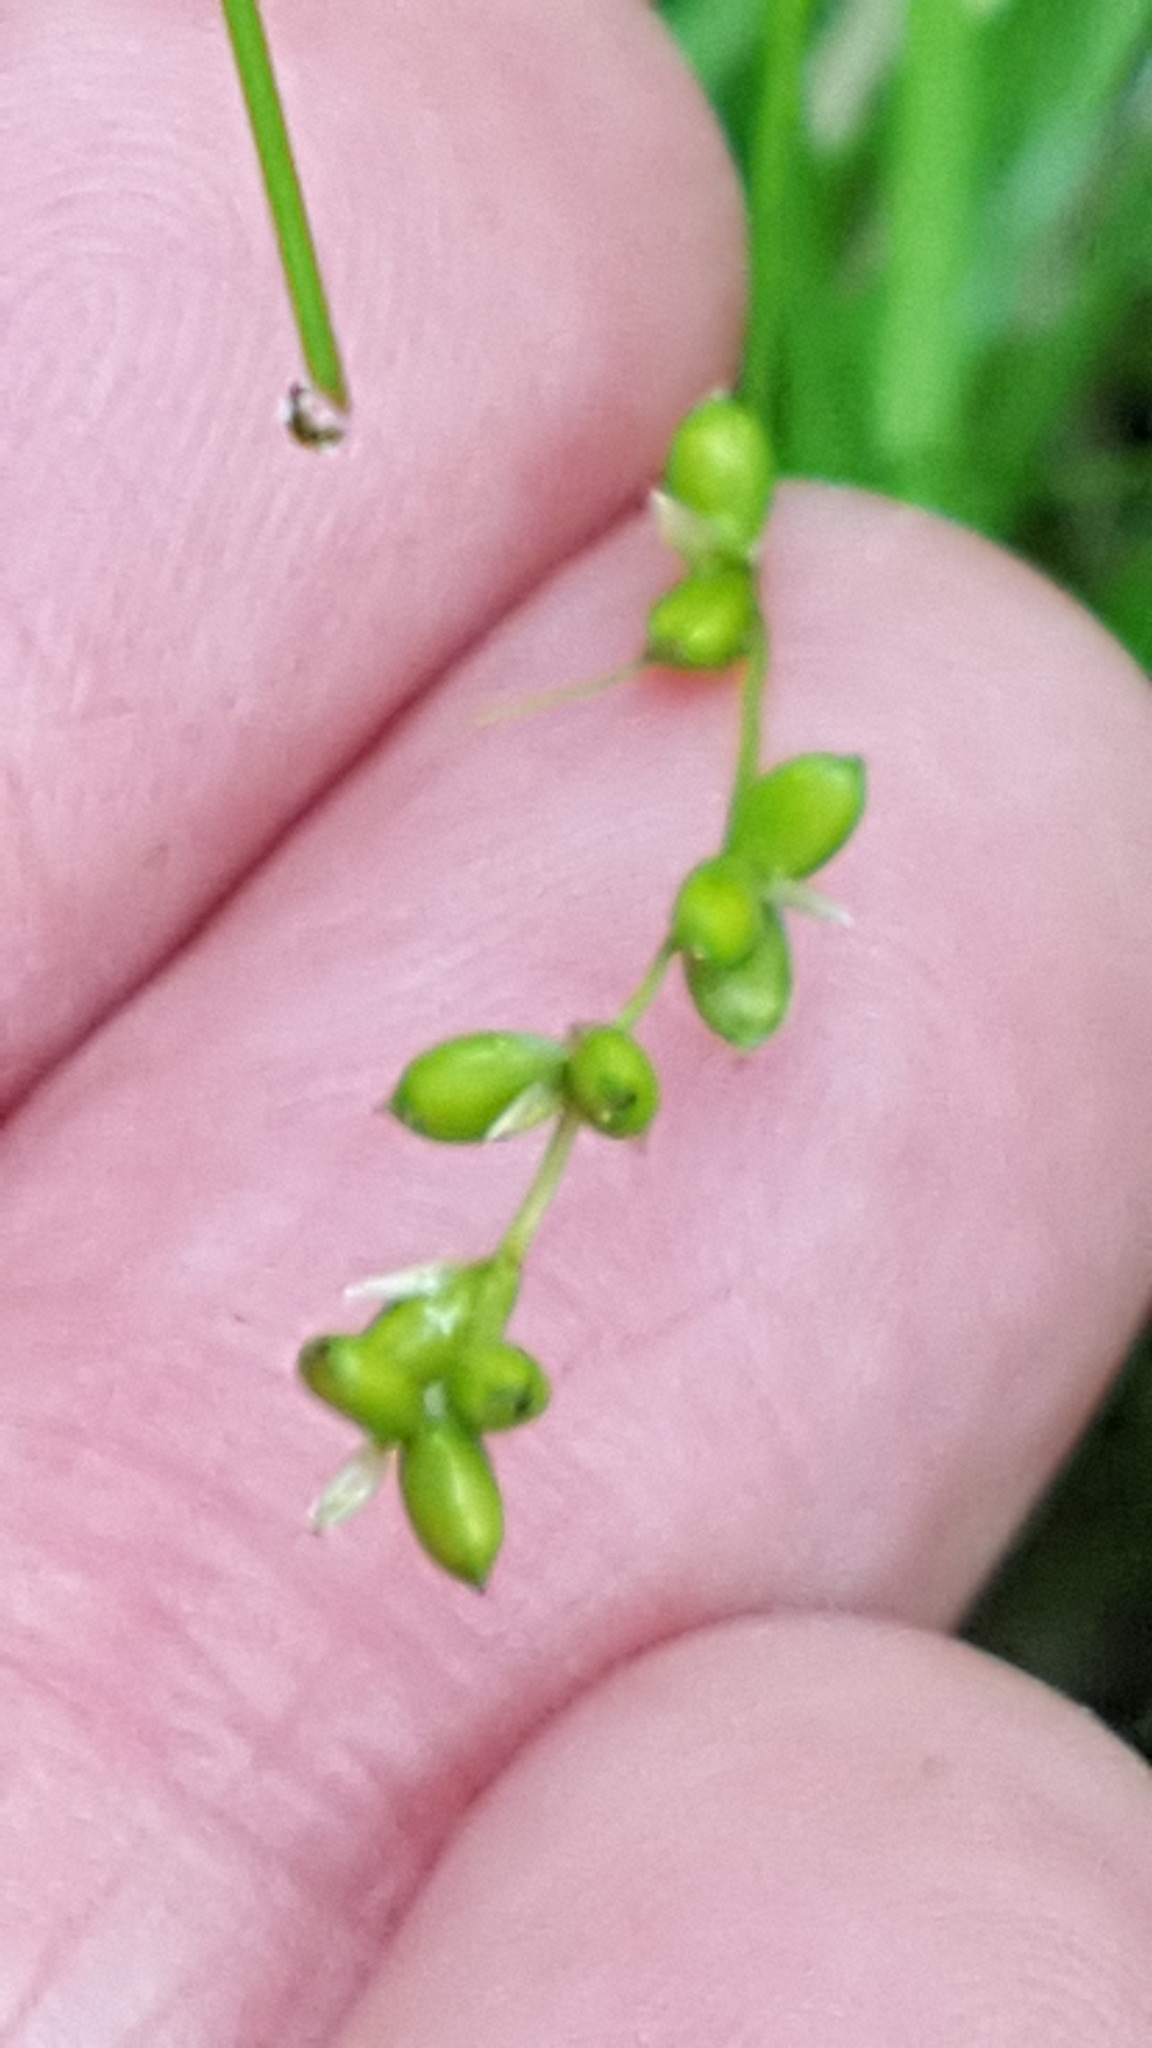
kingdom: Plantae
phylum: Tracheophyta
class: Liliopsida
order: Poales
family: Cyperaceae
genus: Carex
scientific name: Carex disperma
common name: Short-leaved sedge
